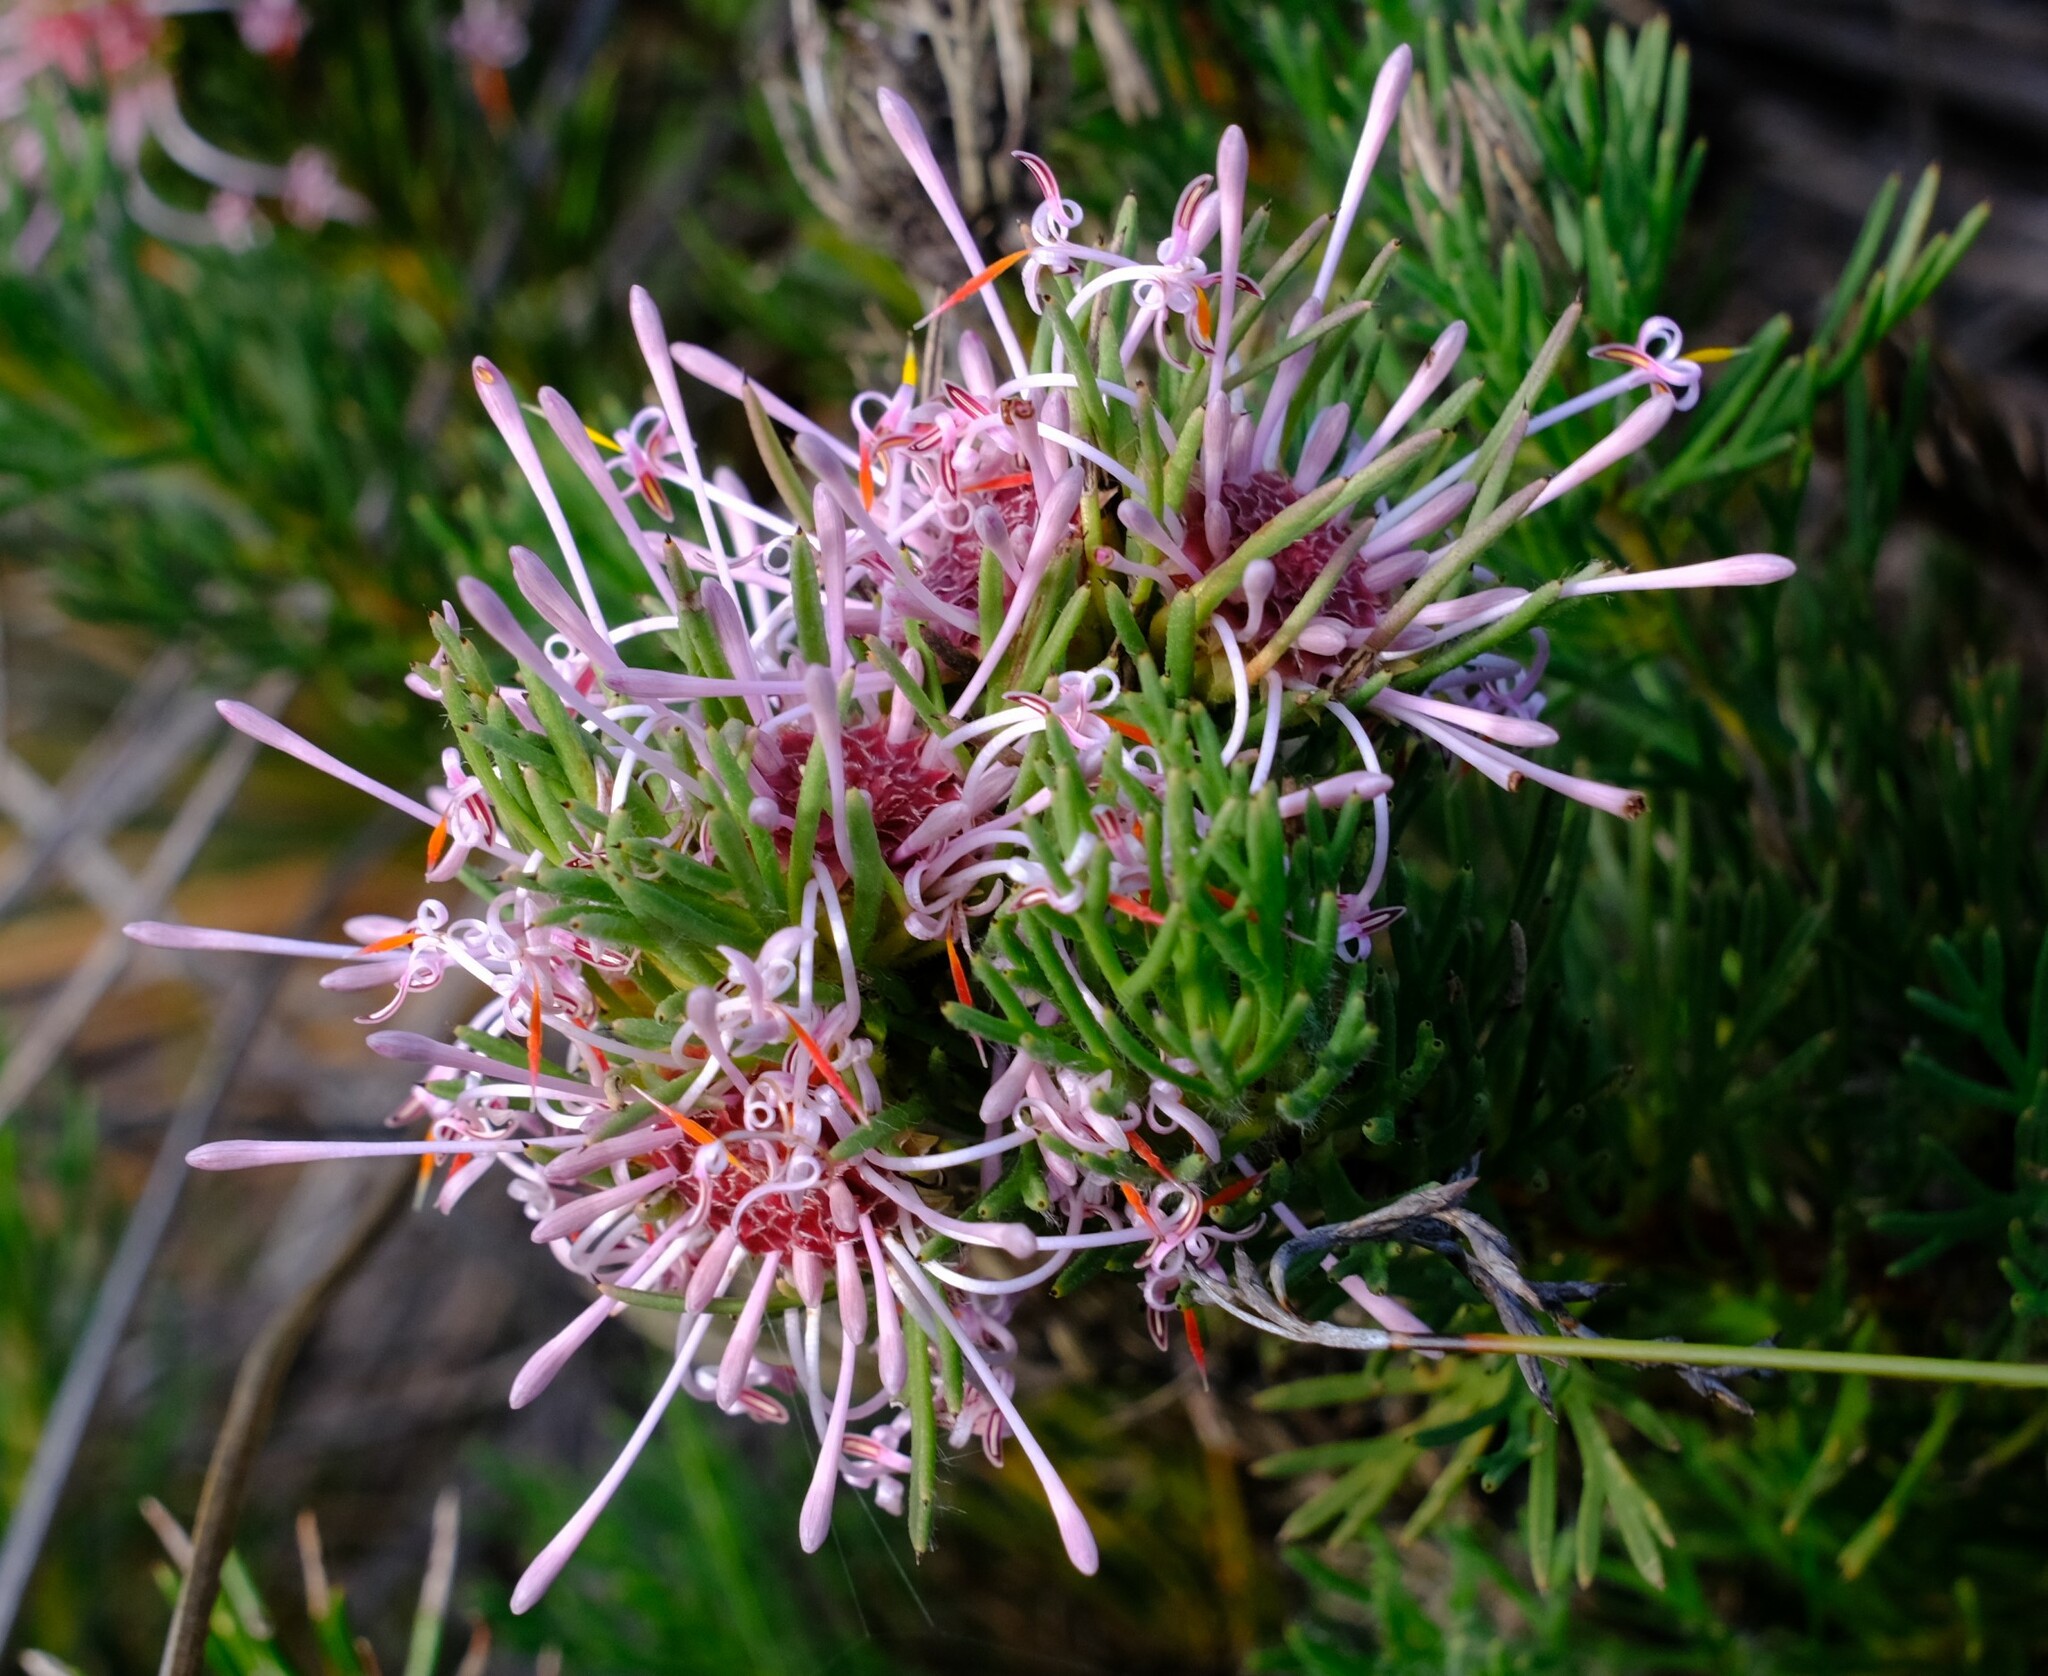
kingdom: Plantae
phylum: Tracheophyta
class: Magnoliopsida
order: Proteales
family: Proteaceae
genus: Isopogon
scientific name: Isopogon asper
